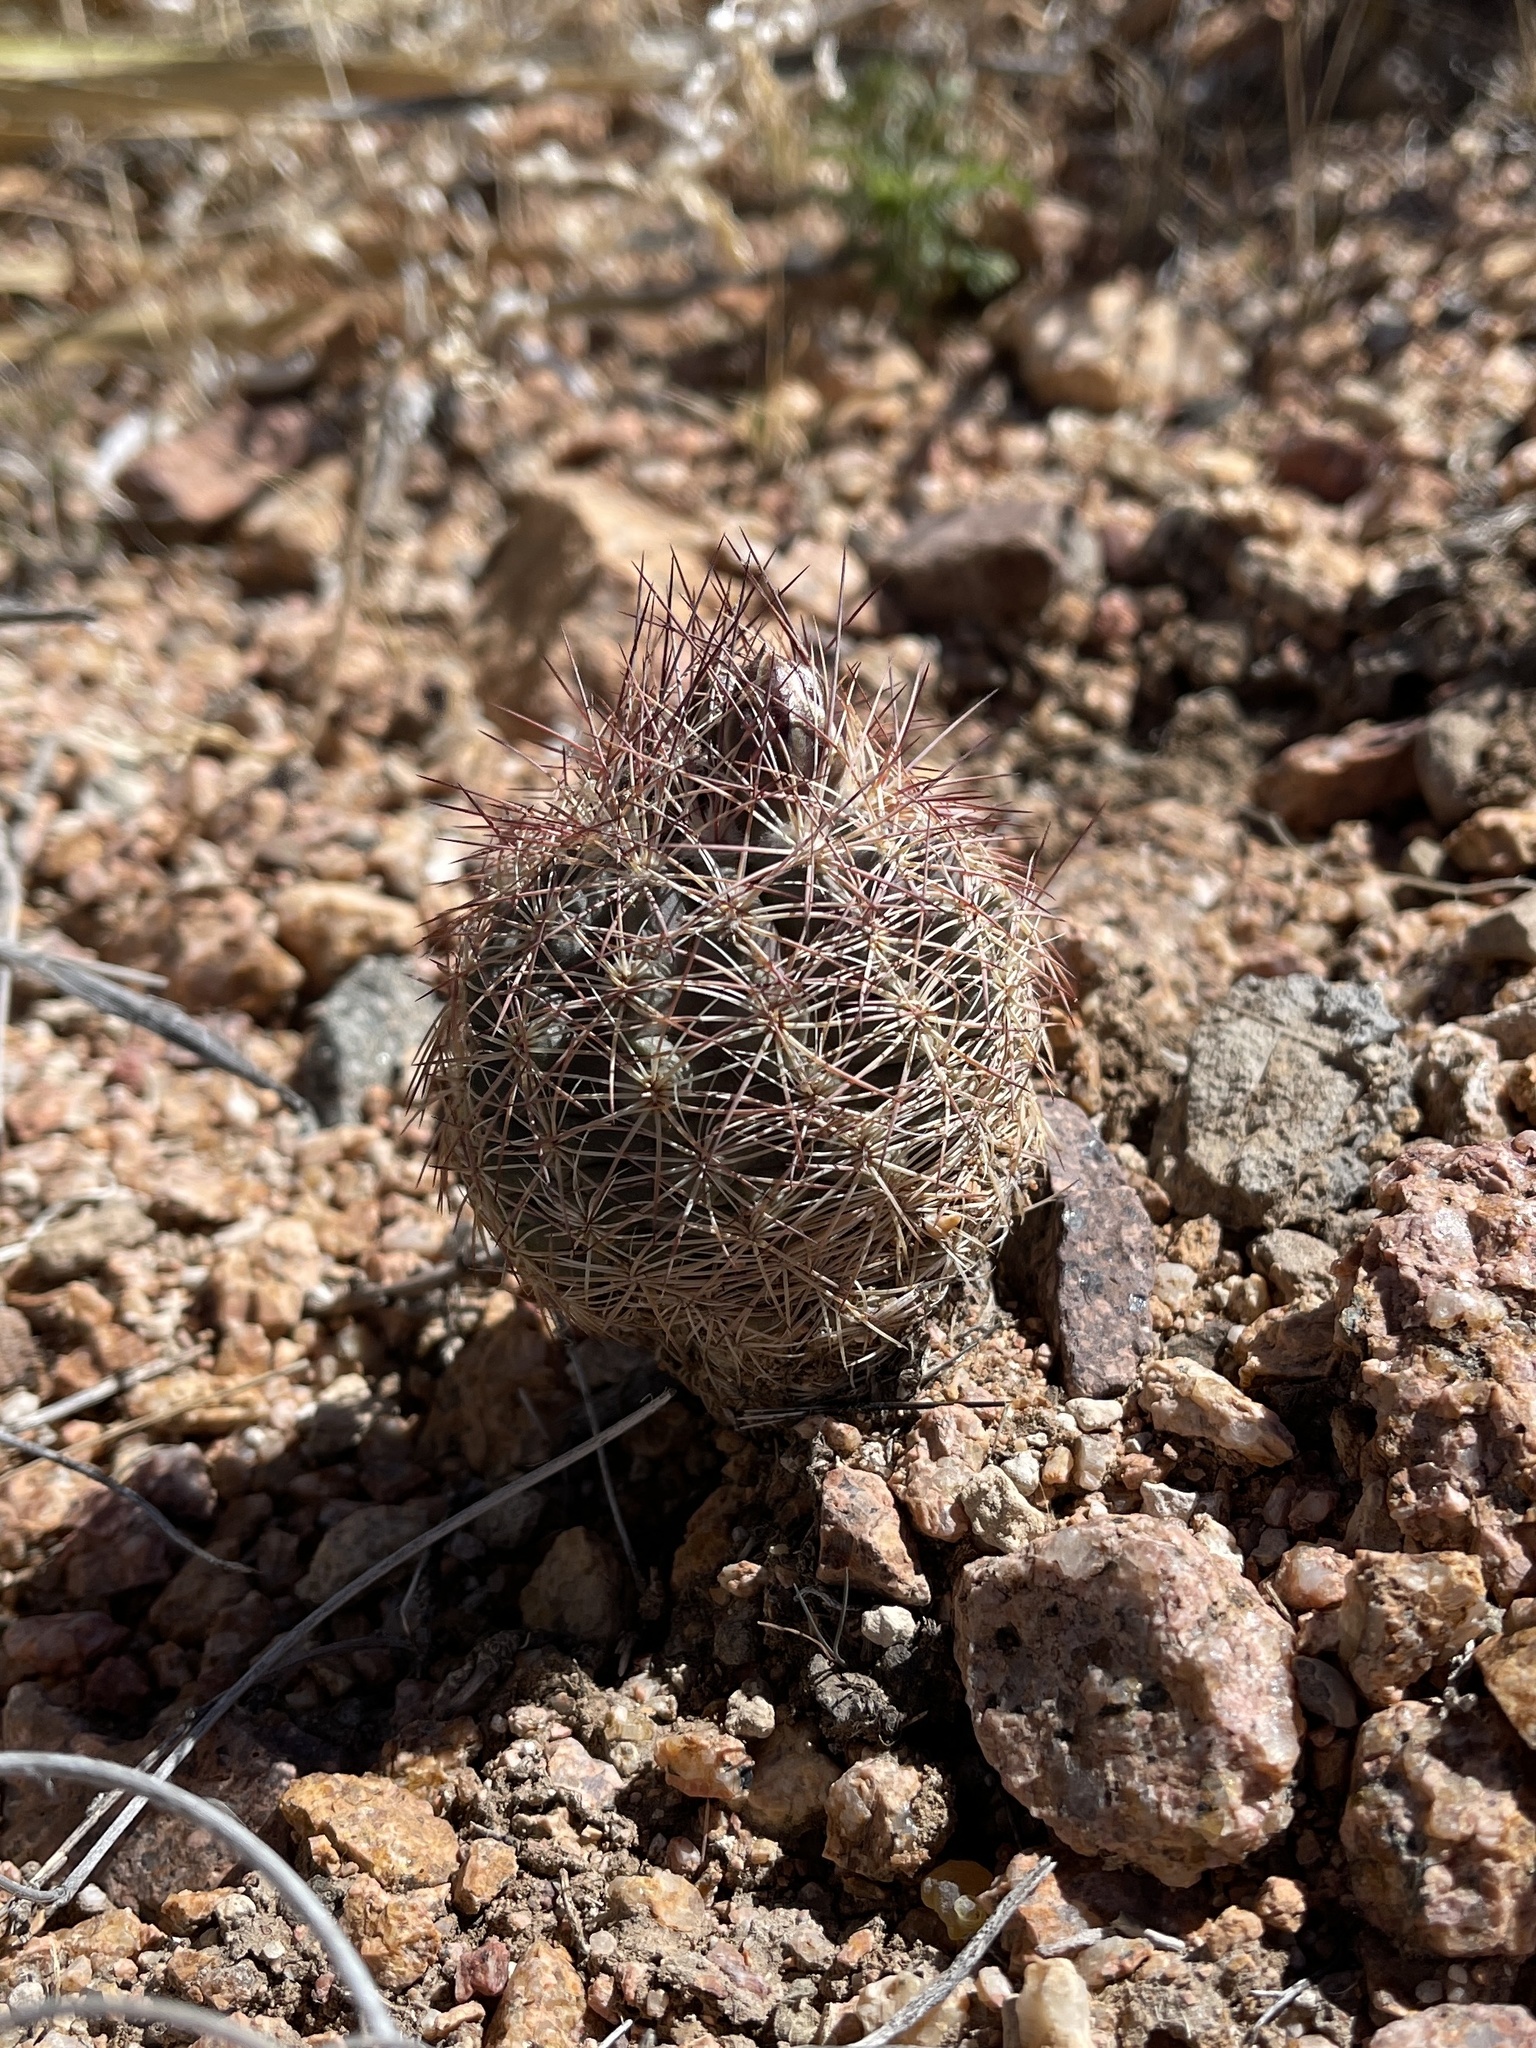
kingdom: Plantae
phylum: Tracheophyta
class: Magnoliopsida
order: Caryophyllales
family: Cactaceae
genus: Sclerocactus
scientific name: Sclerocactus intertextus
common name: White fish-hook cactus
